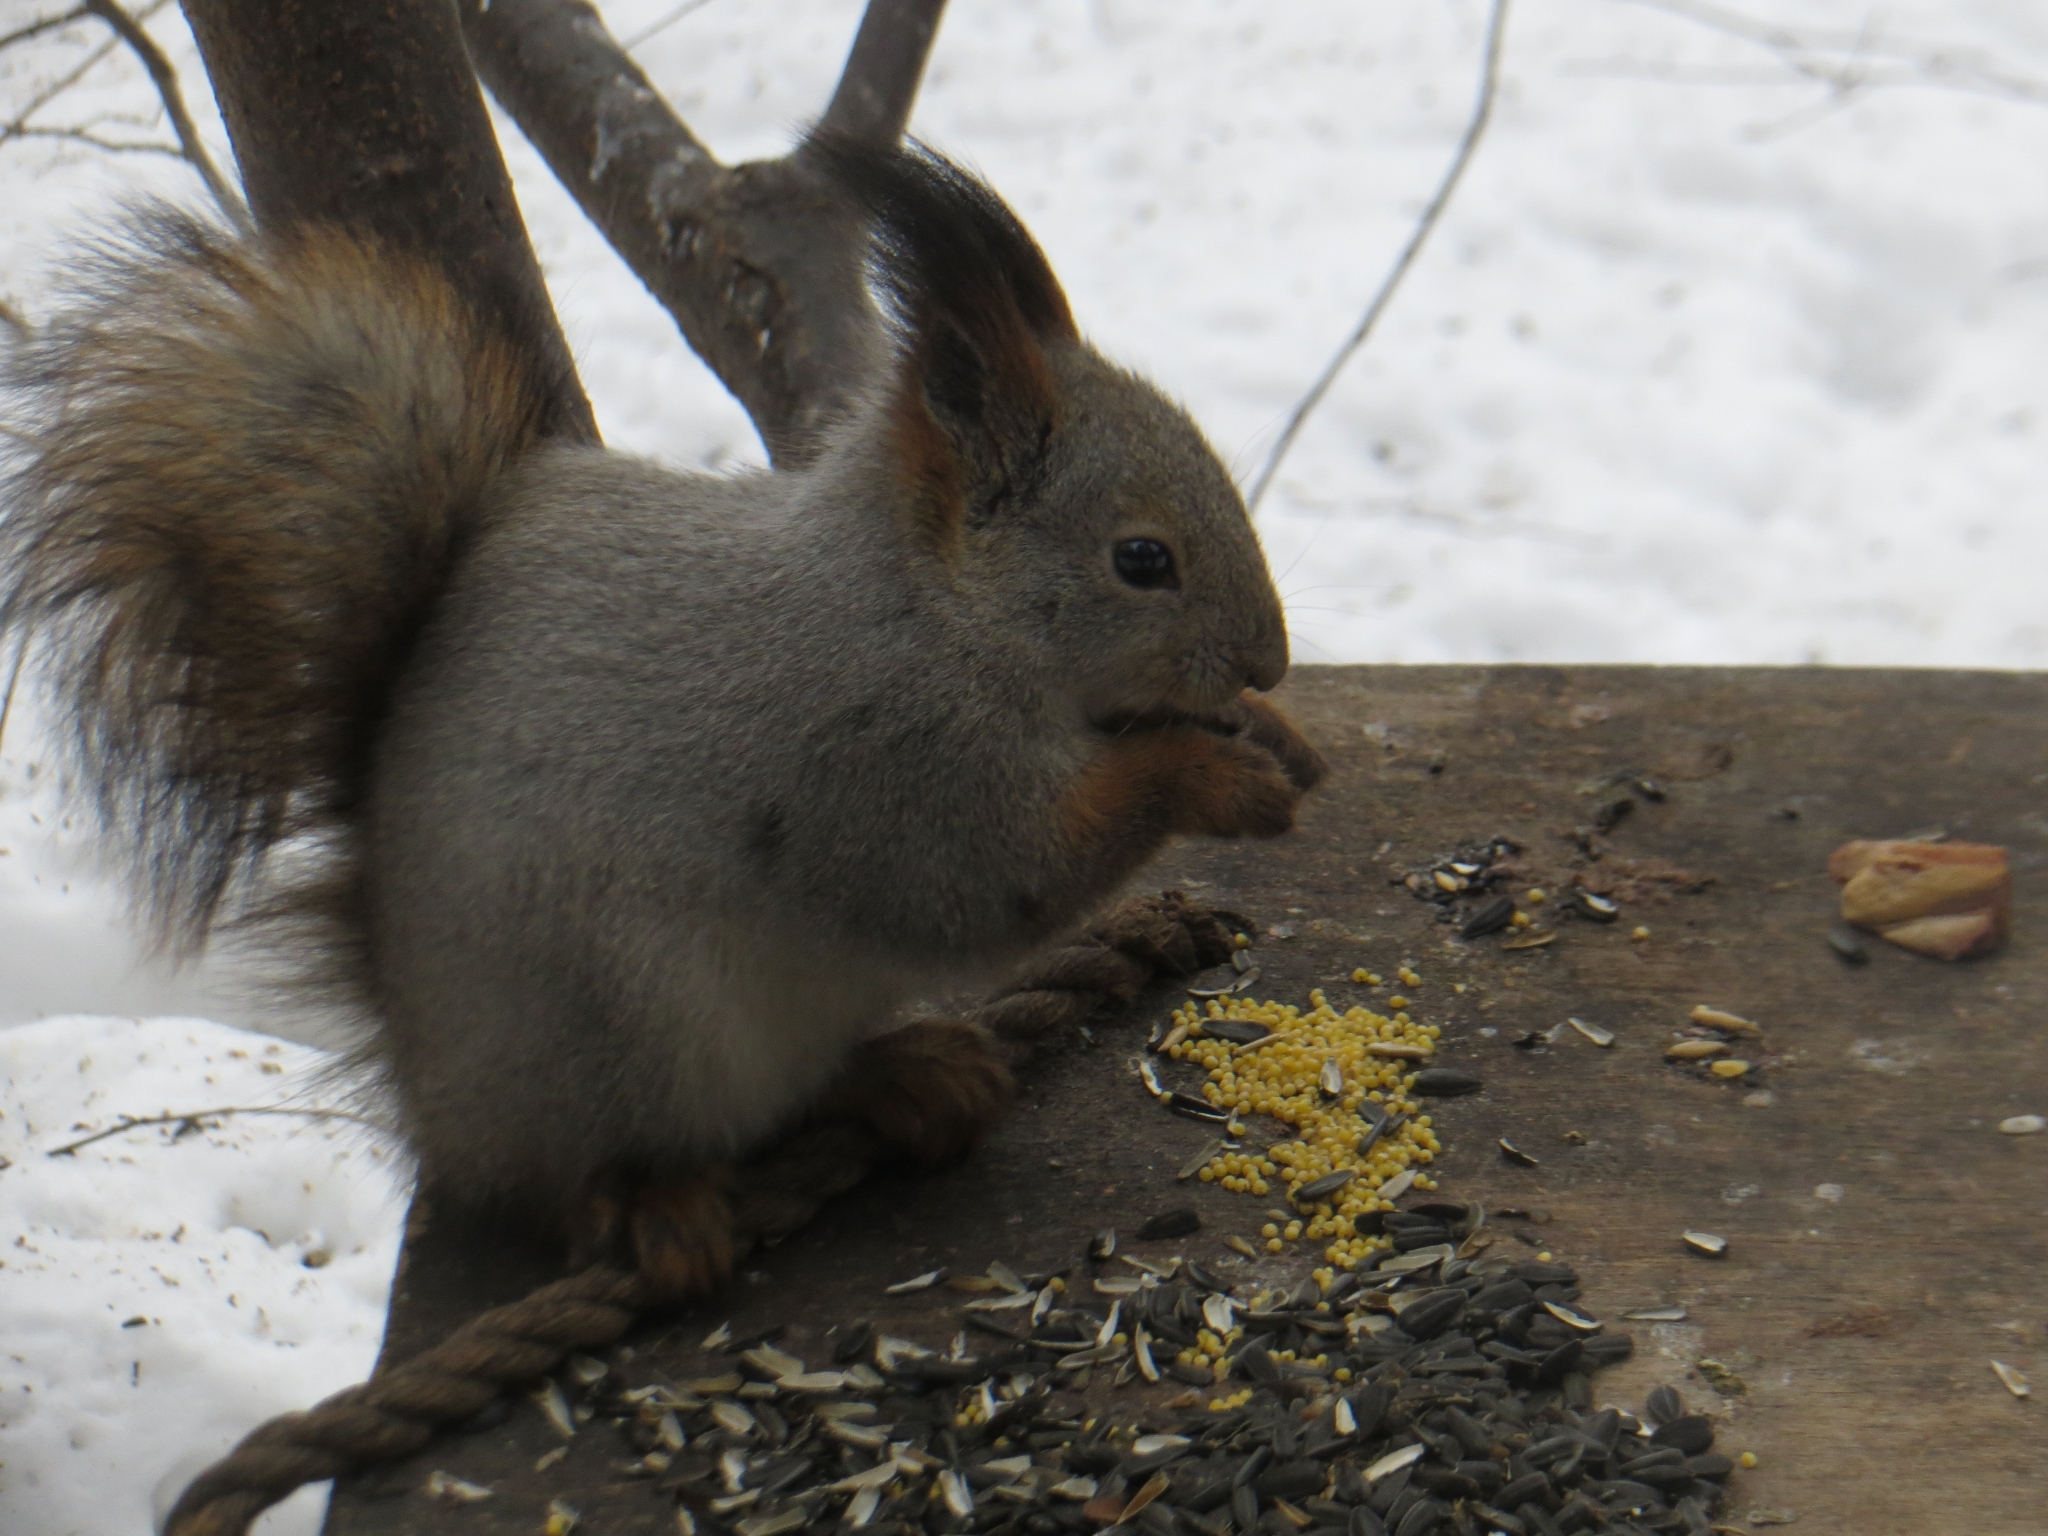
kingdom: Animalia
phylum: Chordata
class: Mammalia
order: Rodentia
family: Sciuridae
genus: Sciurus
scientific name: Sciurus vulgaris
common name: Eurasian red squirrel
